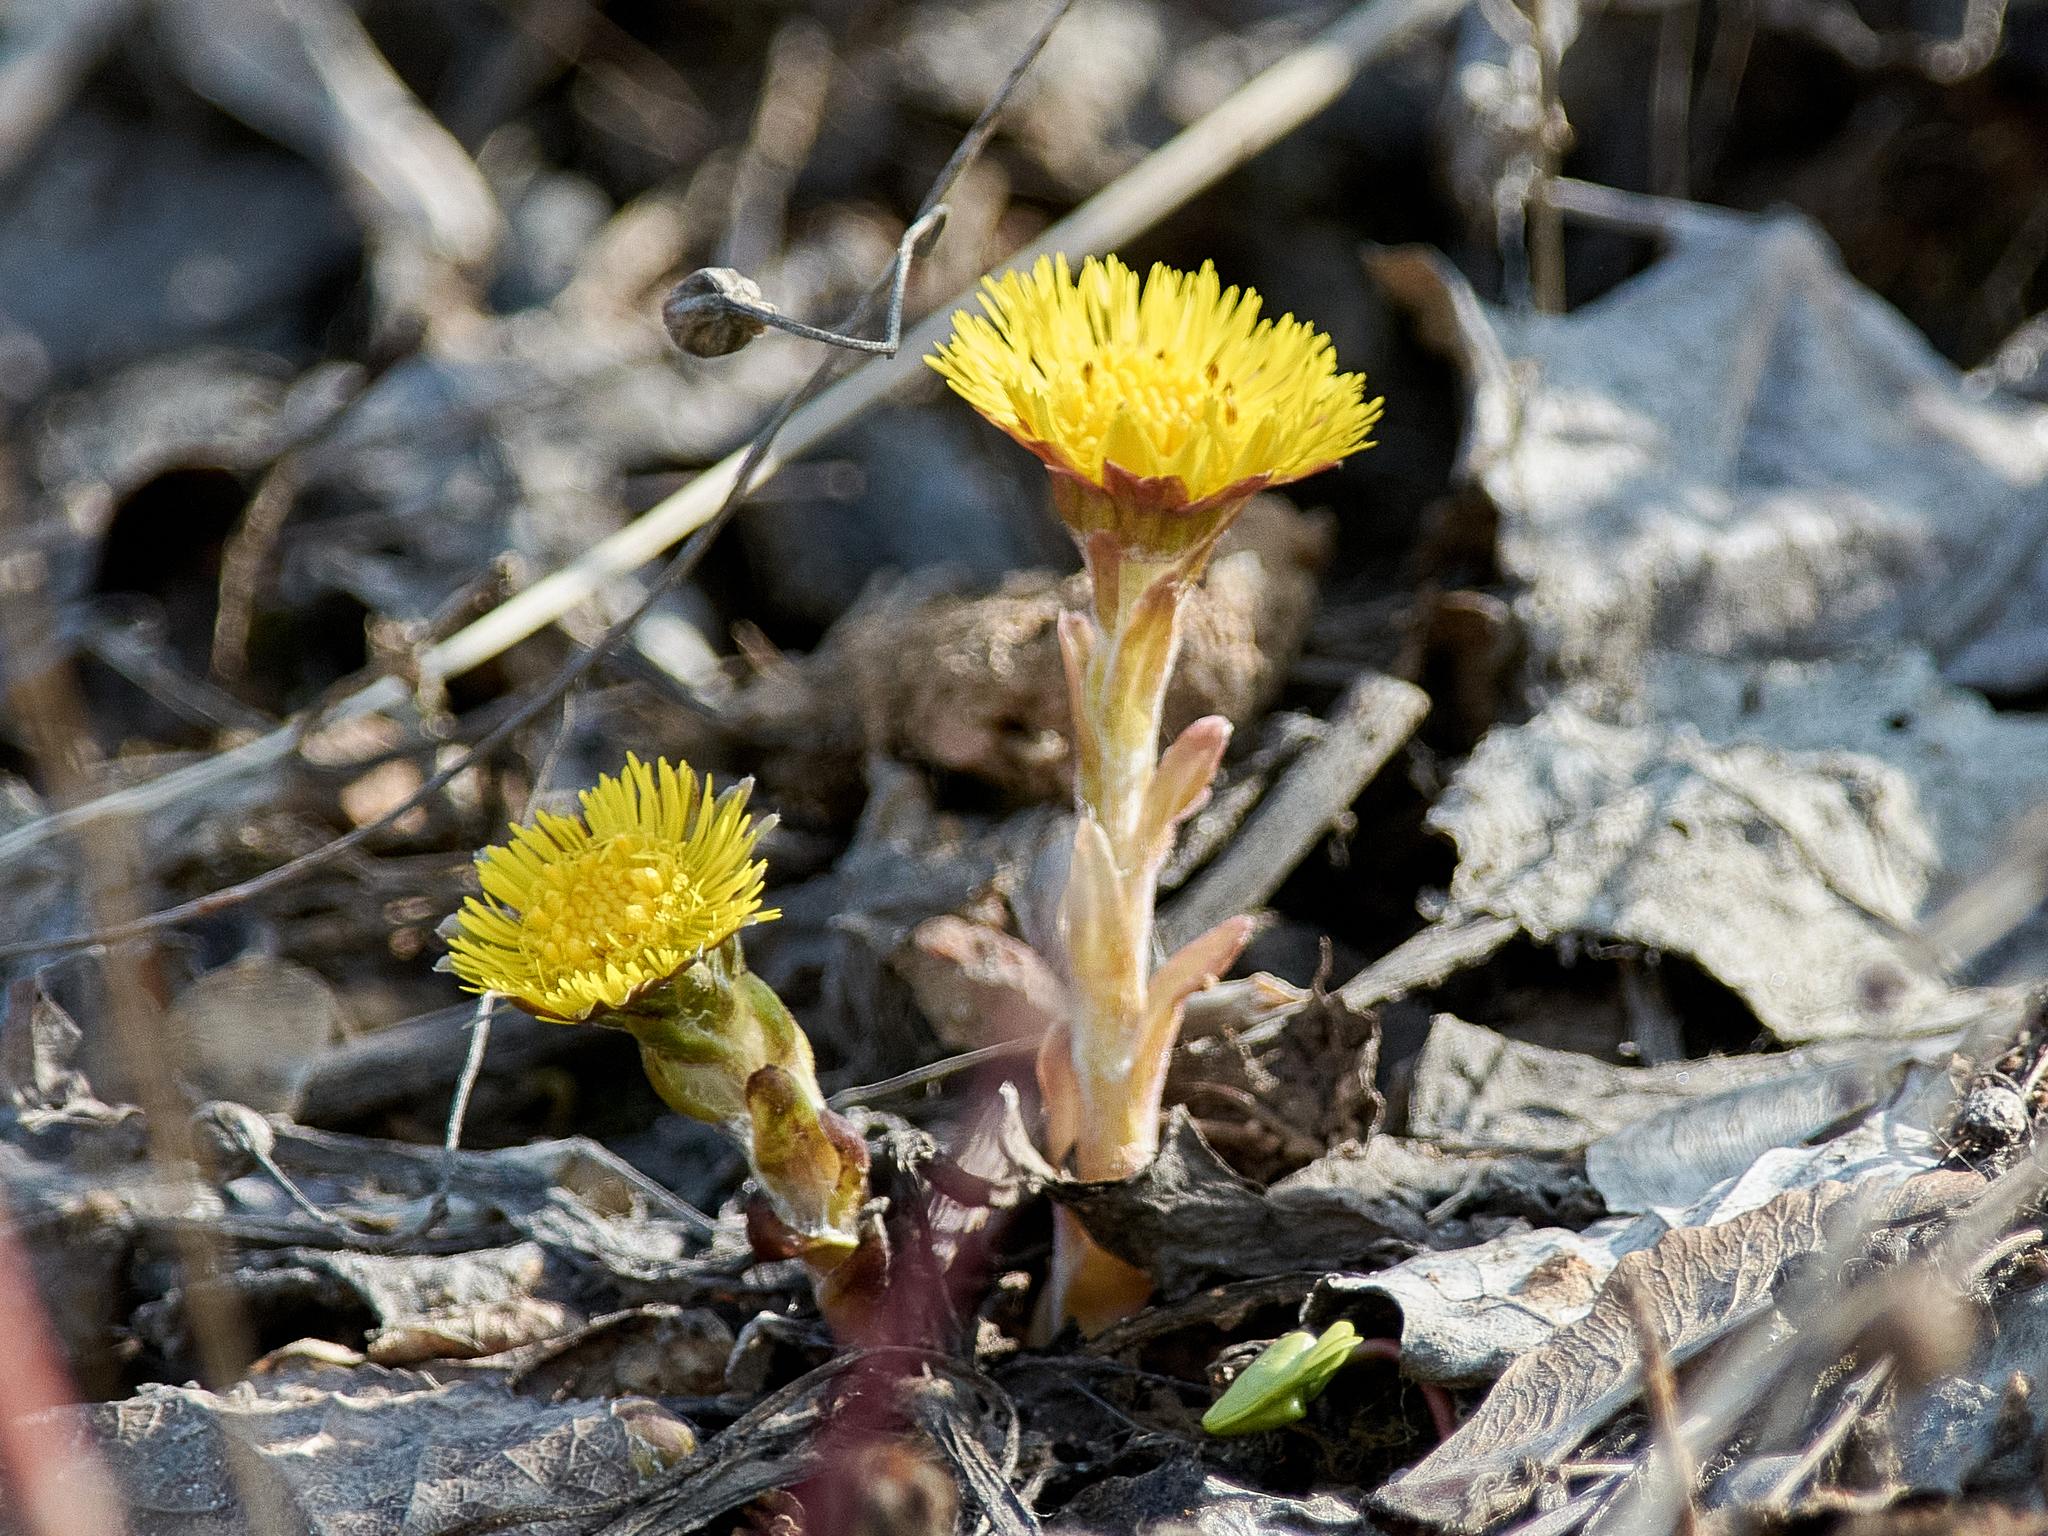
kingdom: Plantae
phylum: Tracheophyta
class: Magnoliopsida
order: Asterales
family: Asteraceae
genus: Tussilago
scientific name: Tussilago farfara
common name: Coltsfoot
